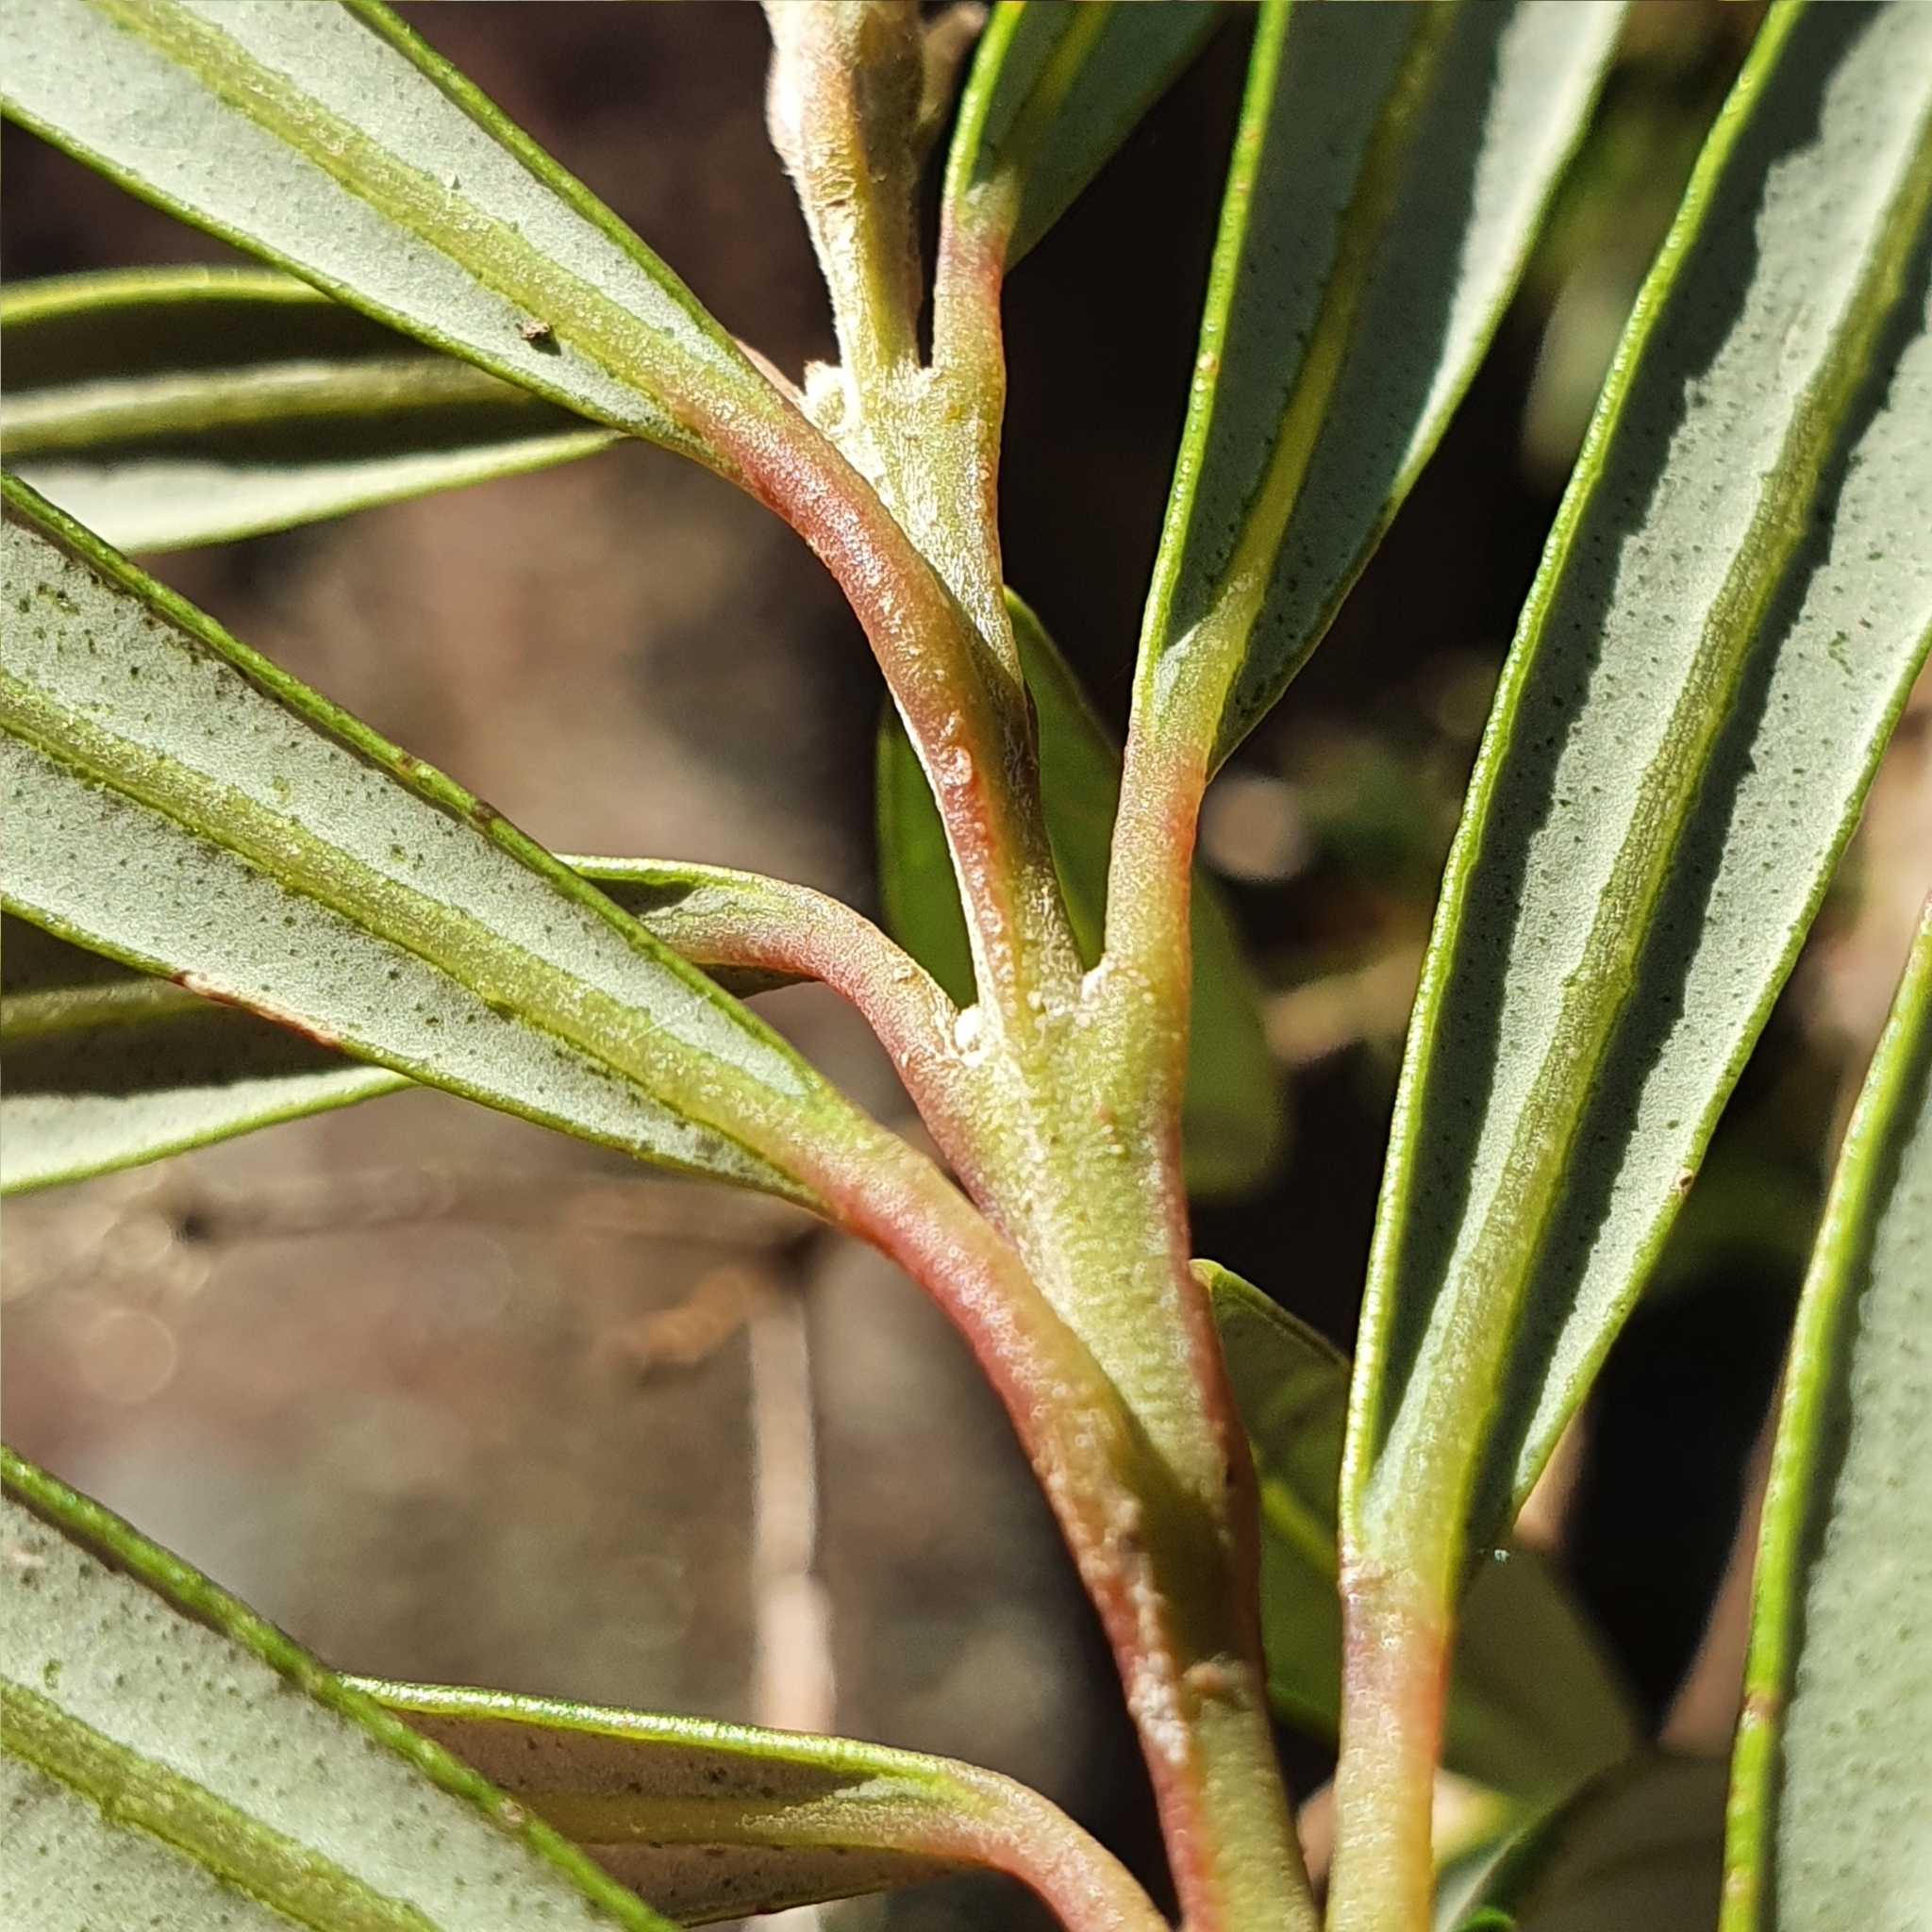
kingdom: Plantae
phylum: Tracheophyta
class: Magnoliopsida
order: Myrtales
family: Myrtaceae
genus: Tristania
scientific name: Tristania neriifolia
